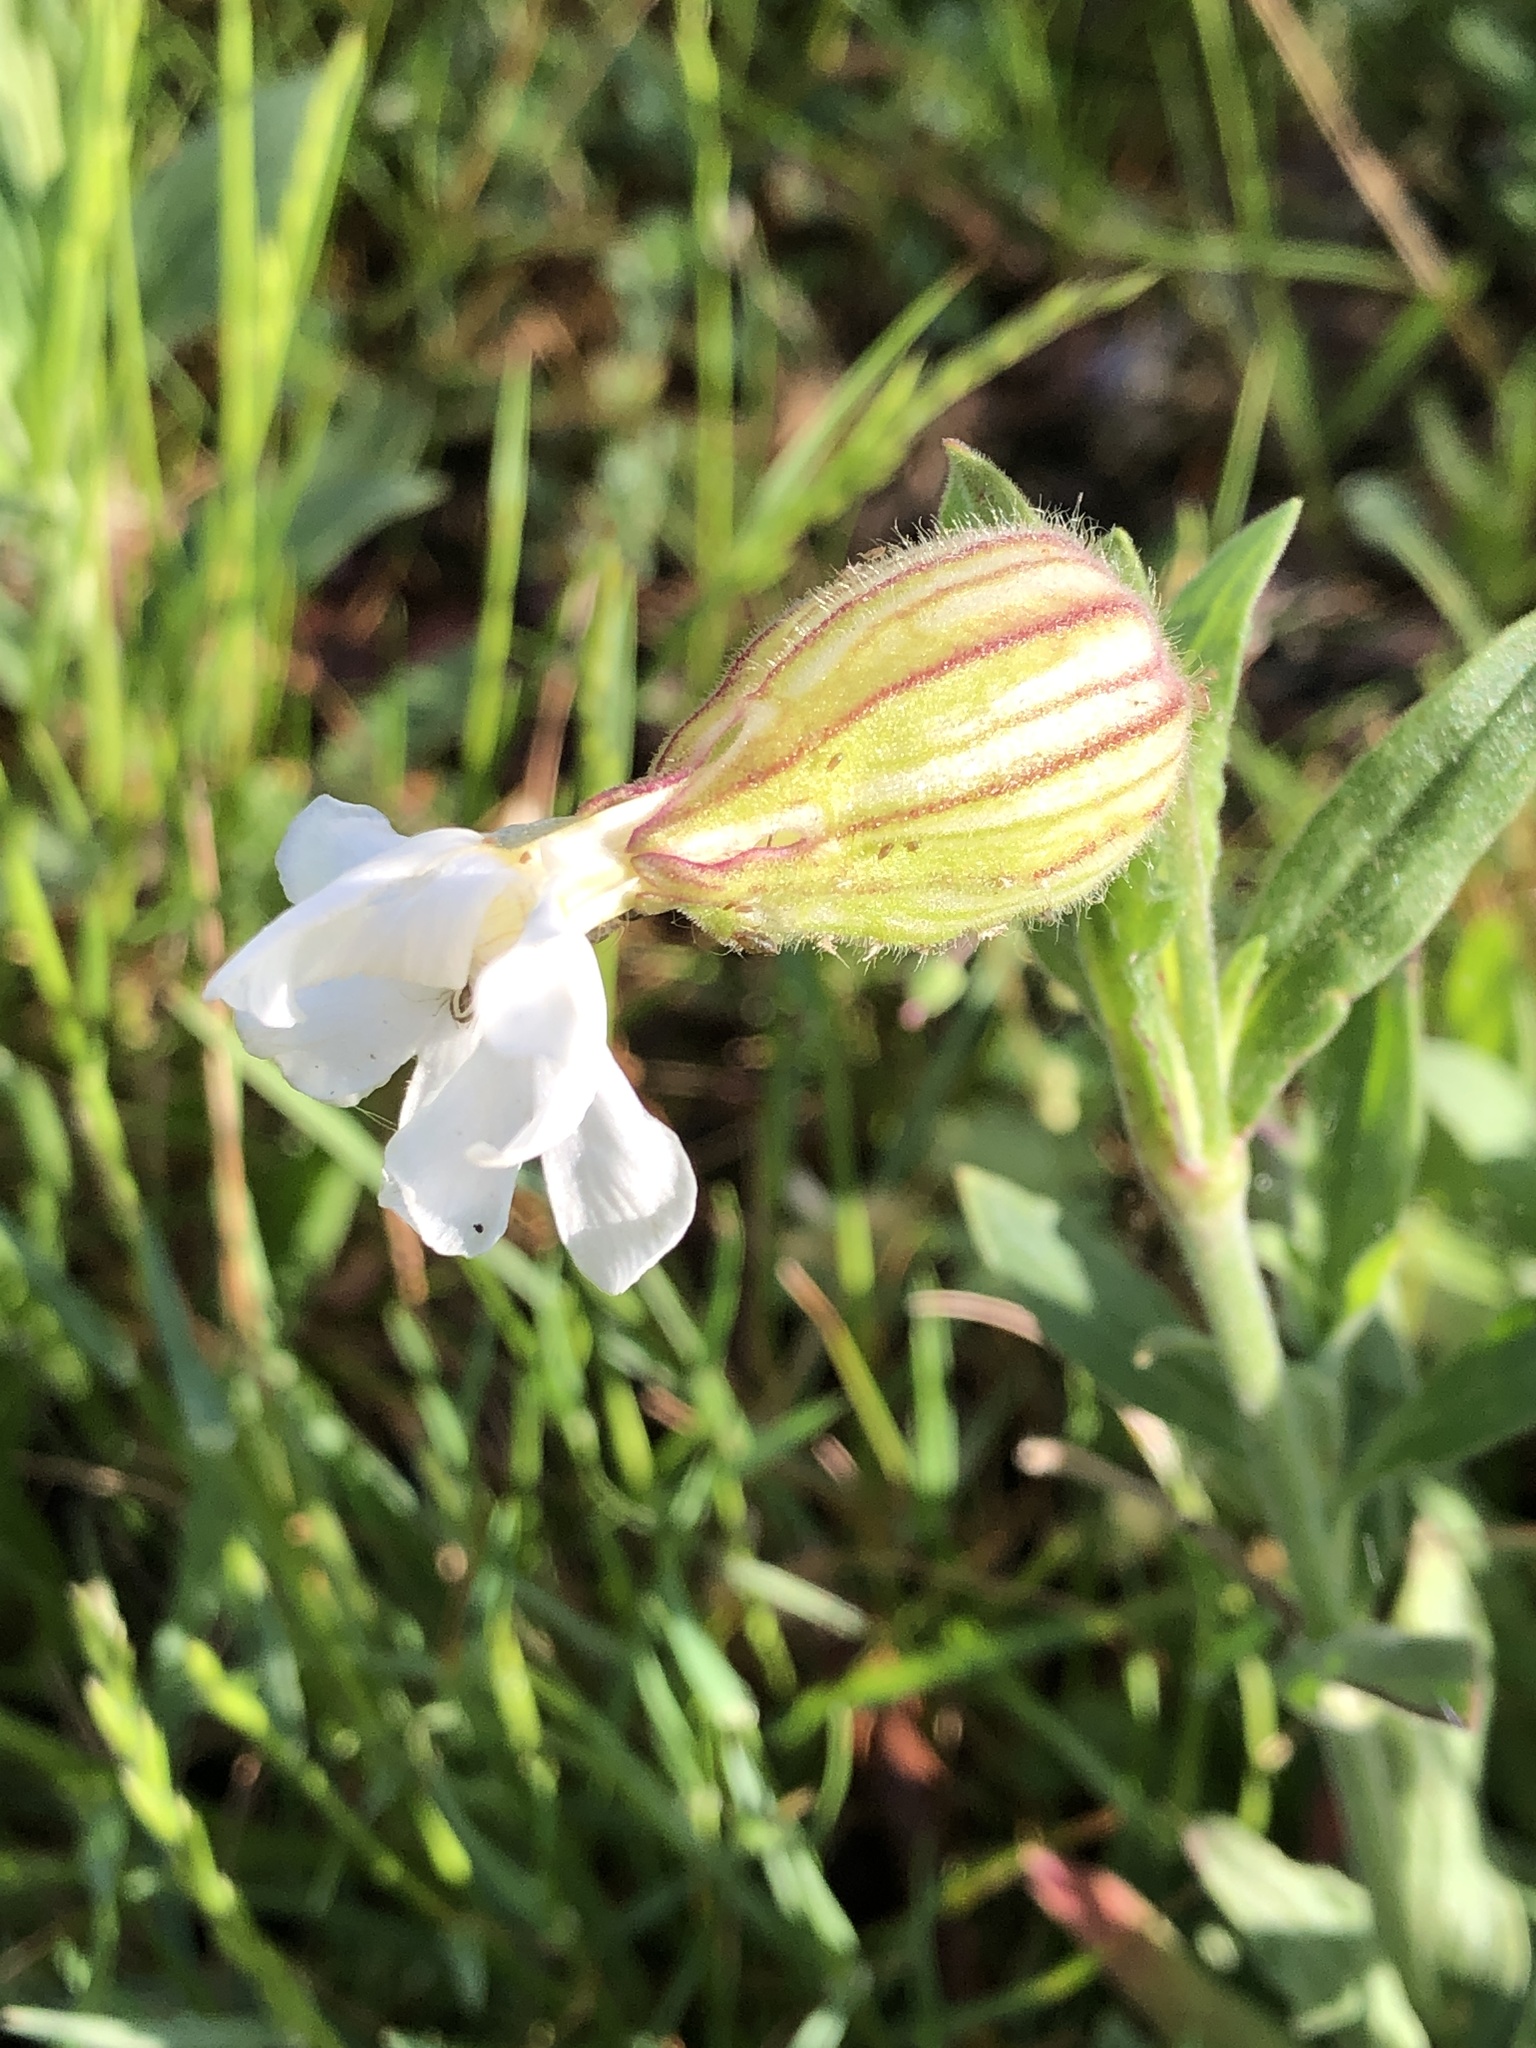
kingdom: Plantae
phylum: Tracheophyta
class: Magnoliopsida
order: Caryophyllales
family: Caryophyllaceae
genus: Silene
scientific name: Silene latifolia
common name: White campion
